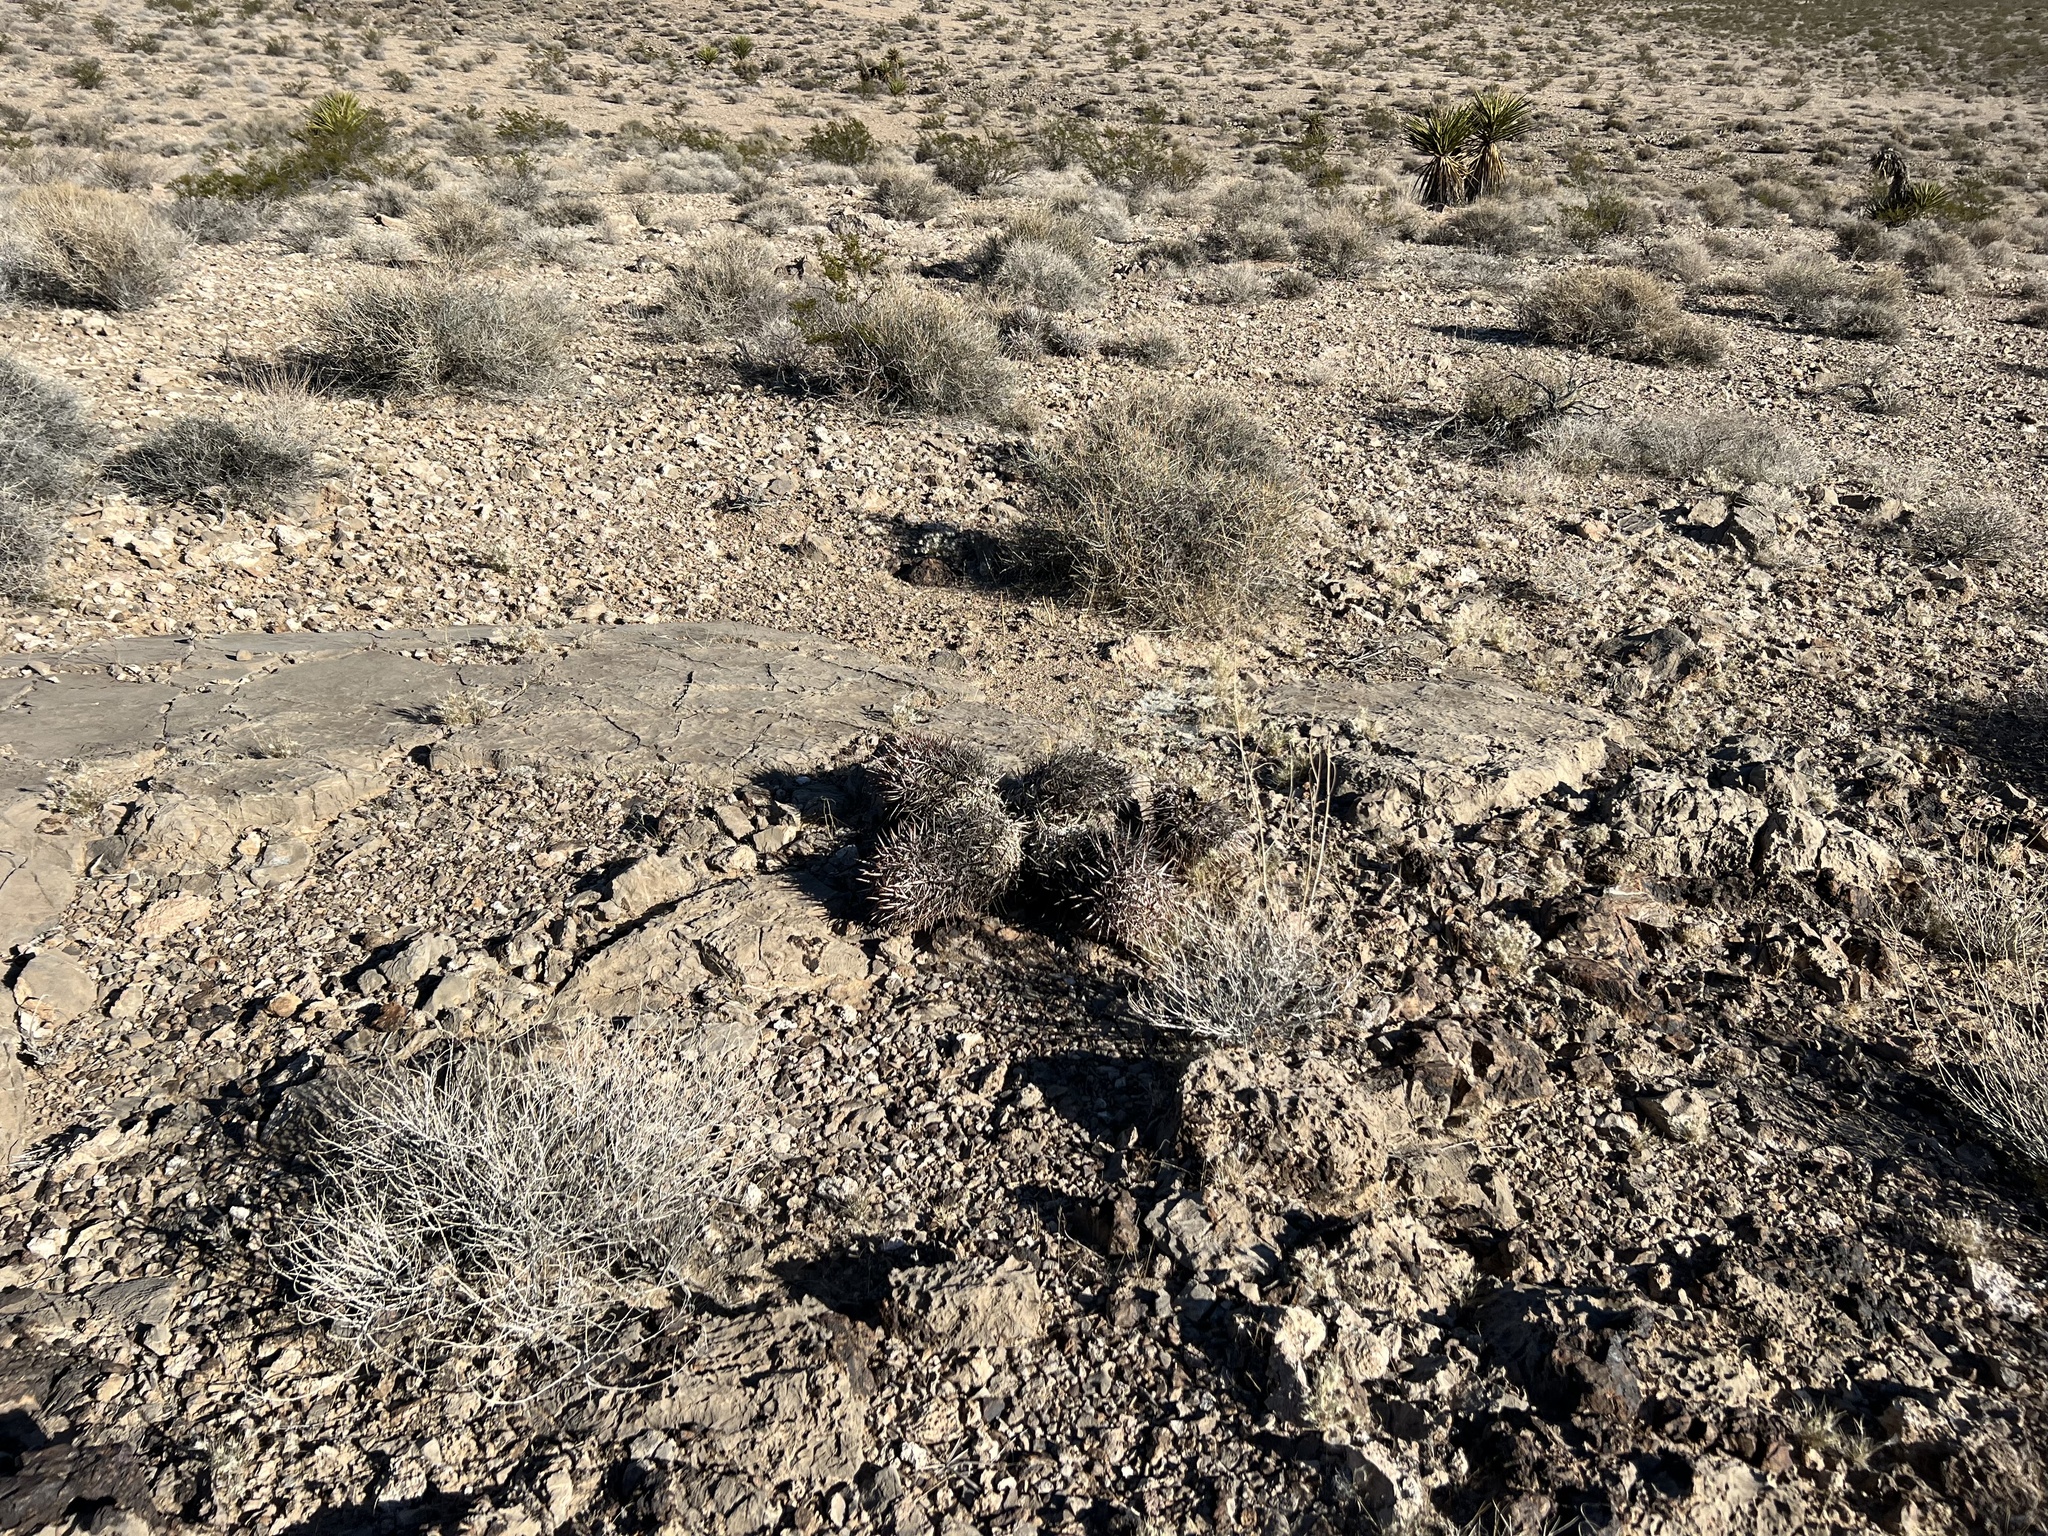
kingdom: Plantae
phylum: Tracheophyta
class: Magnoliopsida
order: Caryophyllales
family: Cactaceae
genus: Echinocactus
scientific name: Echinocactus polycephalus
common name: Cottontop cactus
